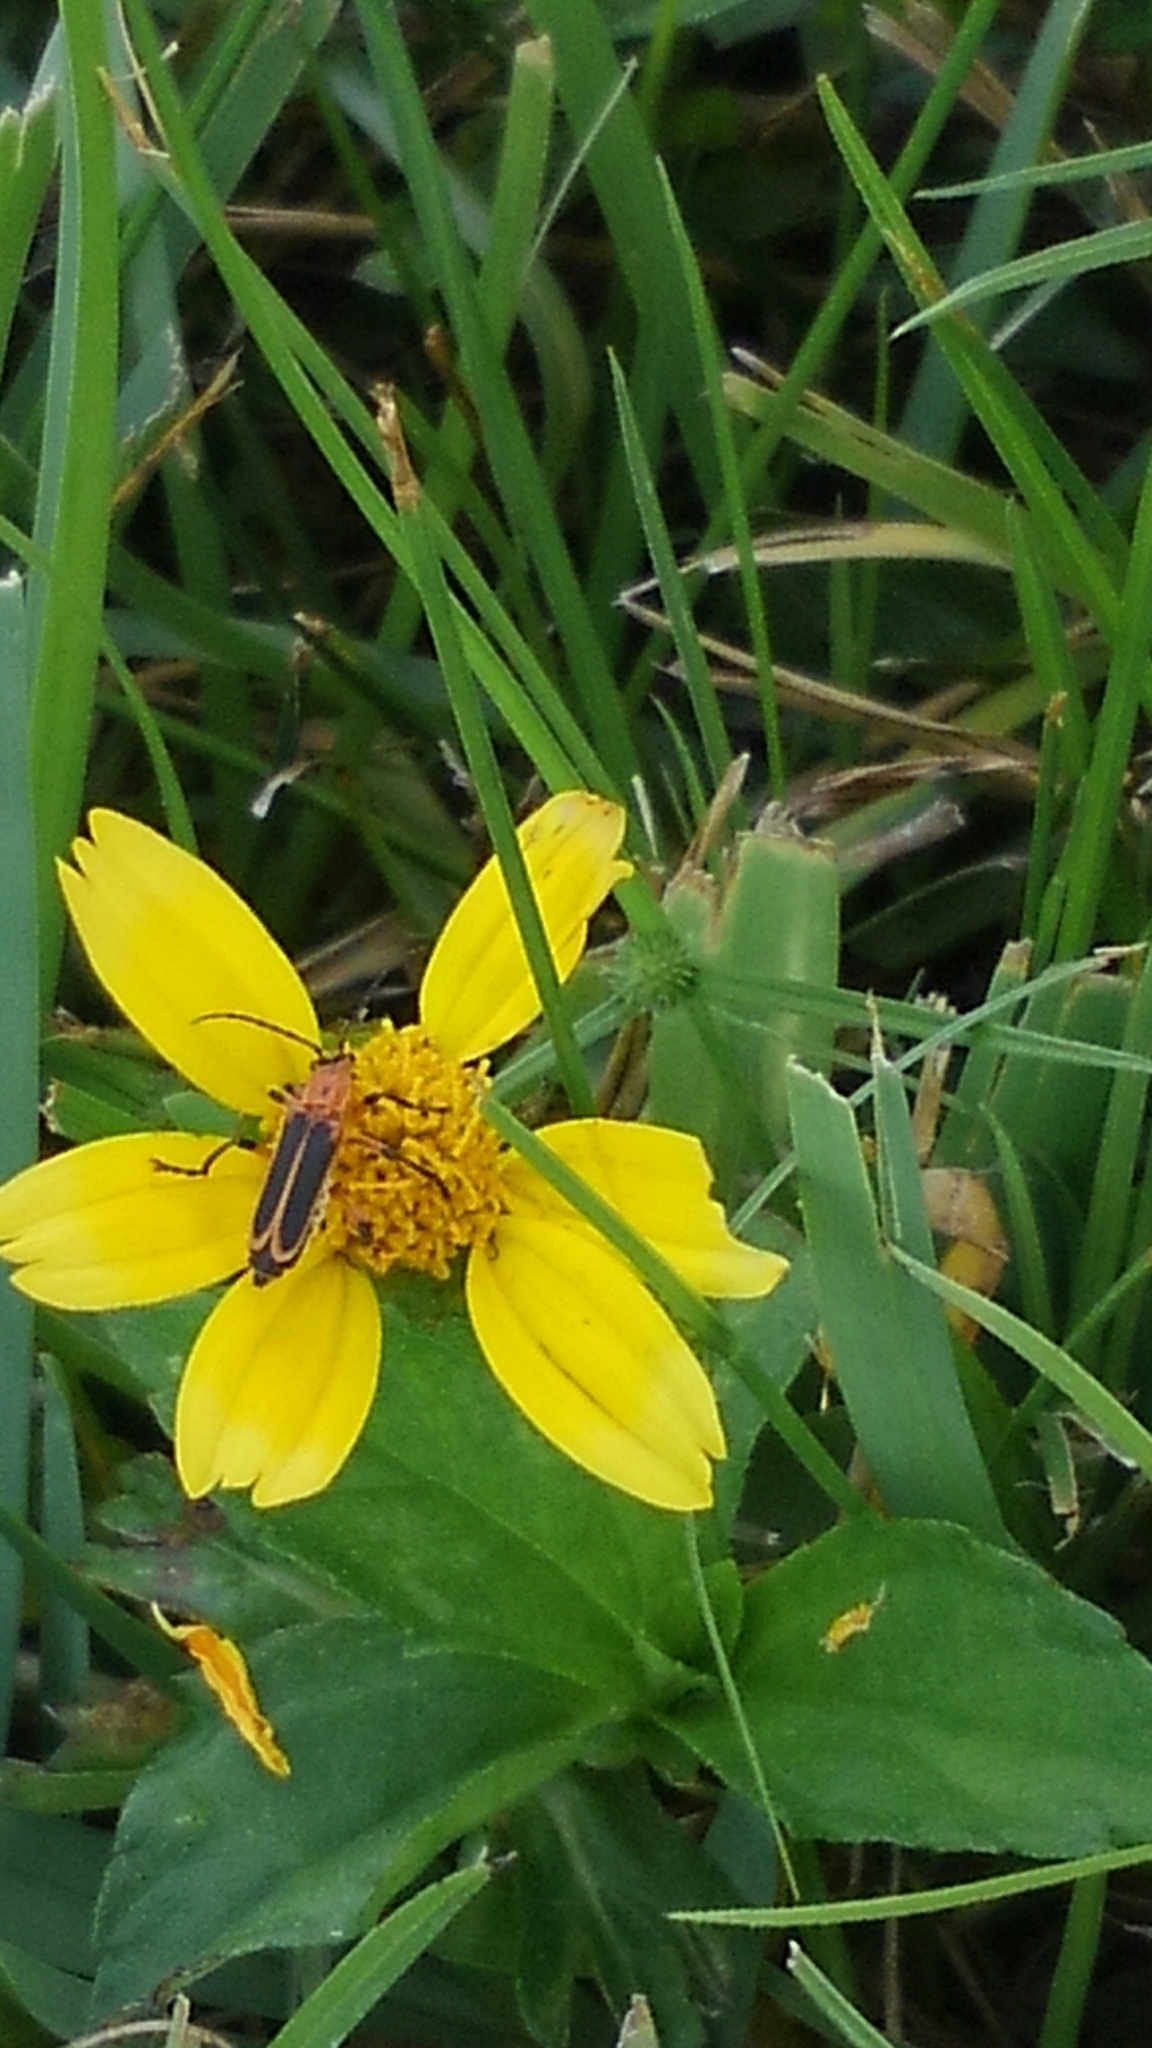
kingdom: Animalia
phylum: Arthropoda
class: Insecta
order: Coleoptera
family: Cantharidae
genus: Chauliognathus
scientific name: Chauliognathus marginatus
